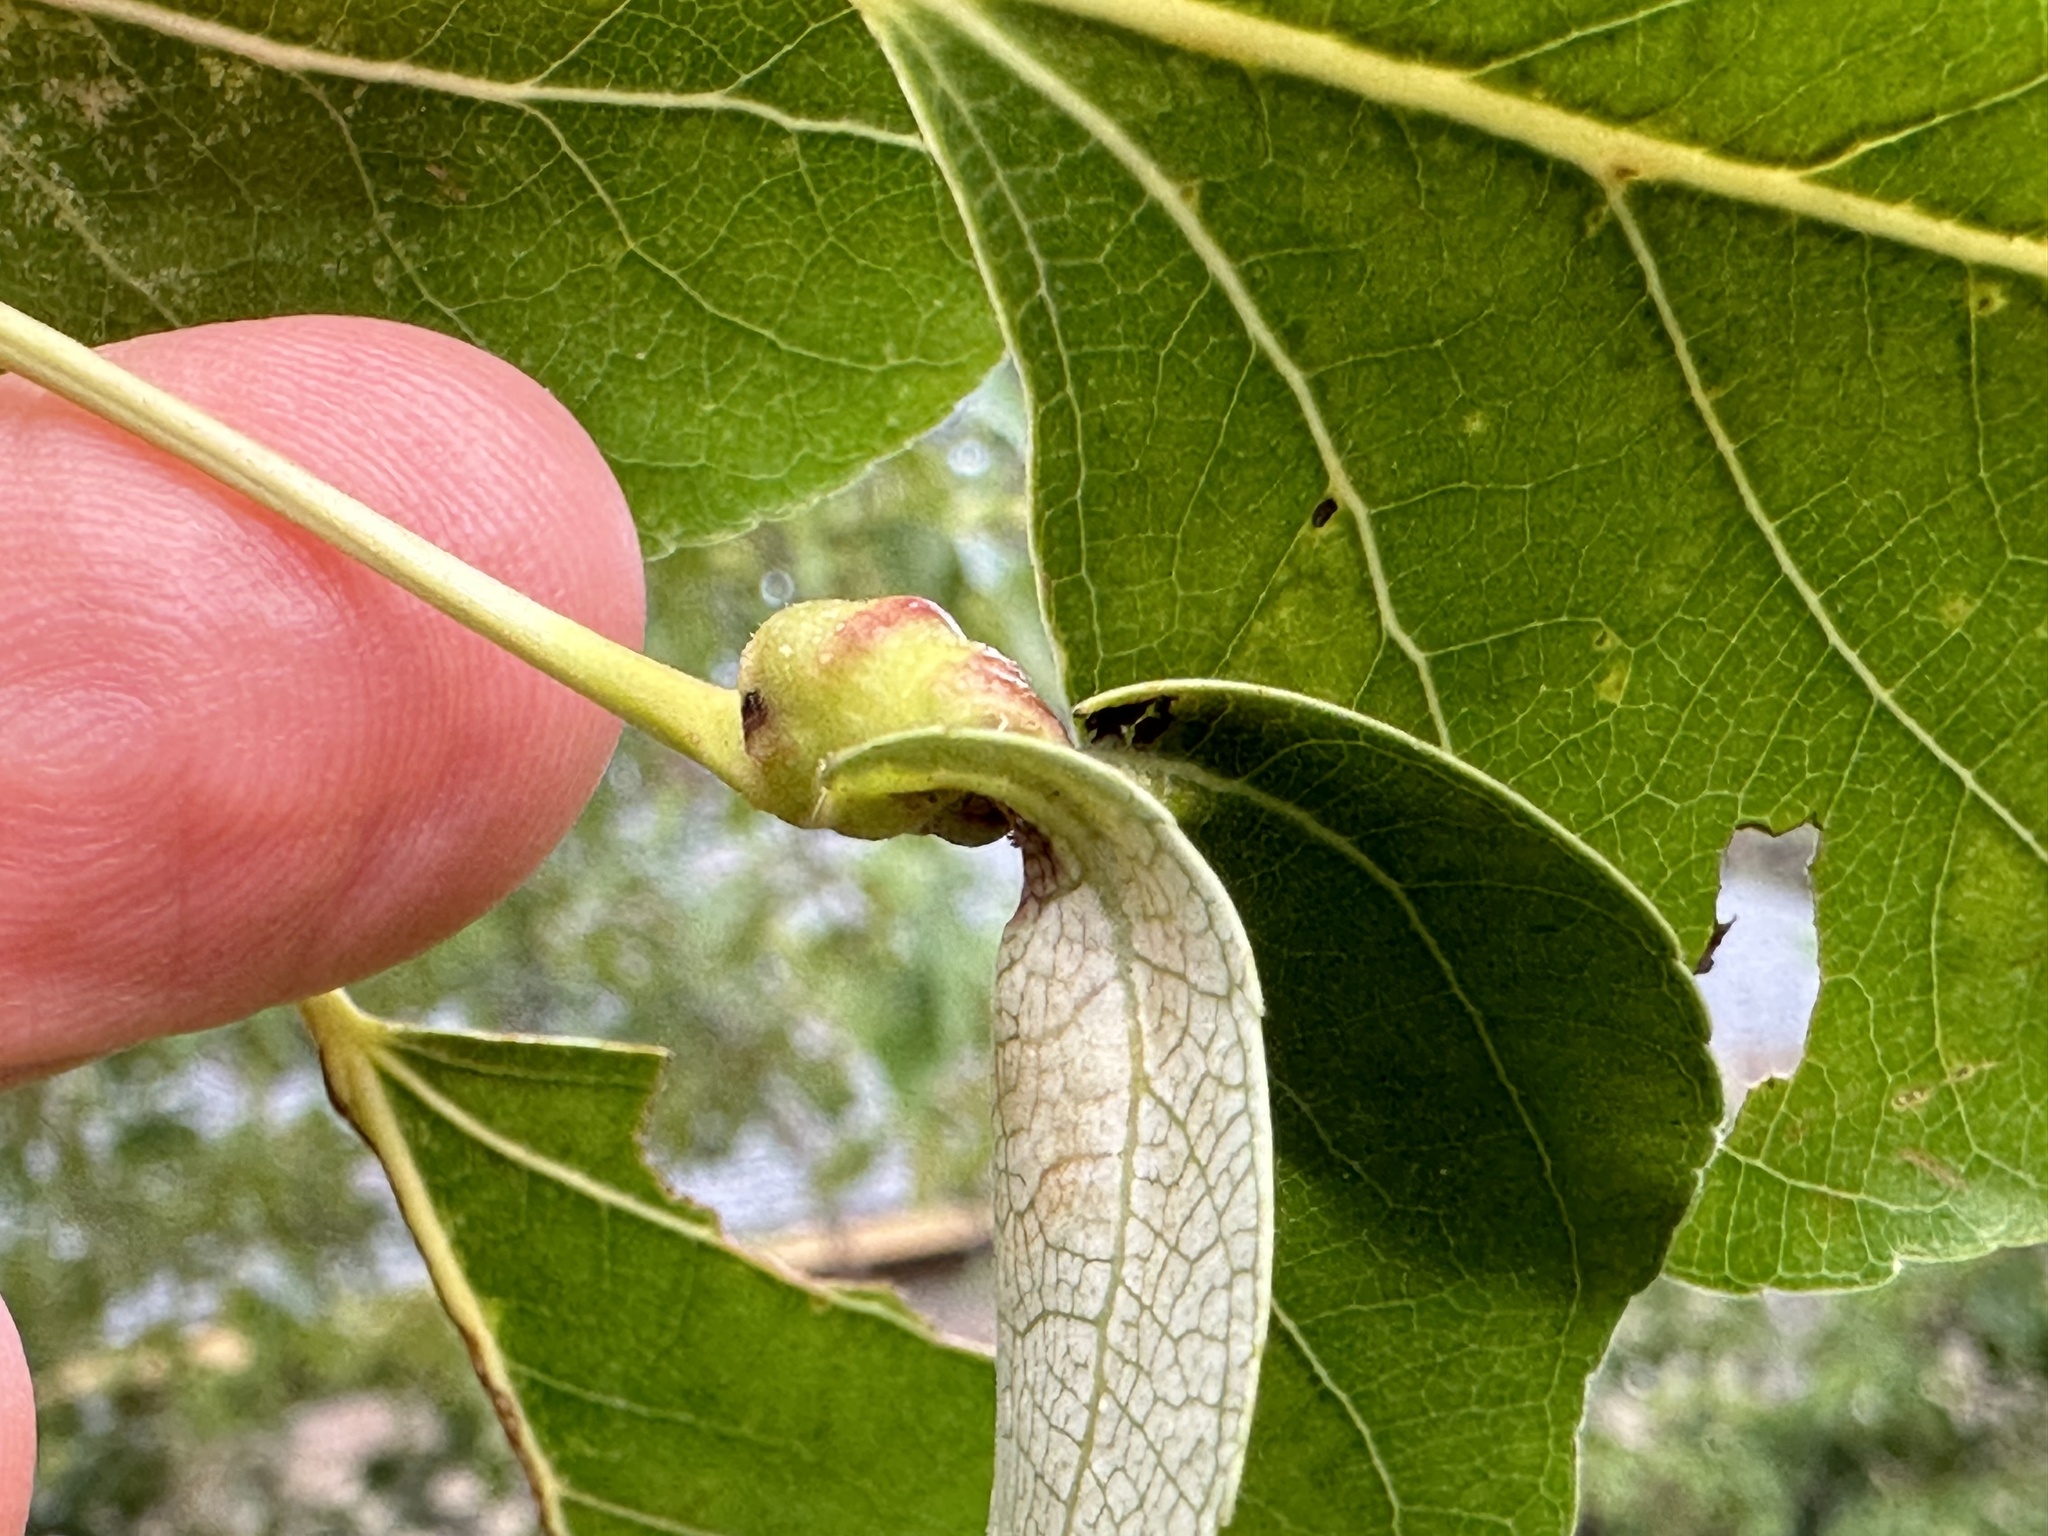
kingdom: Animalia
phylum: Arthropoda
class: Insecta
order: Hemiptera
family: Aphididae
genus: Pemphigus
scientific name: Pemphigus populicaulis
